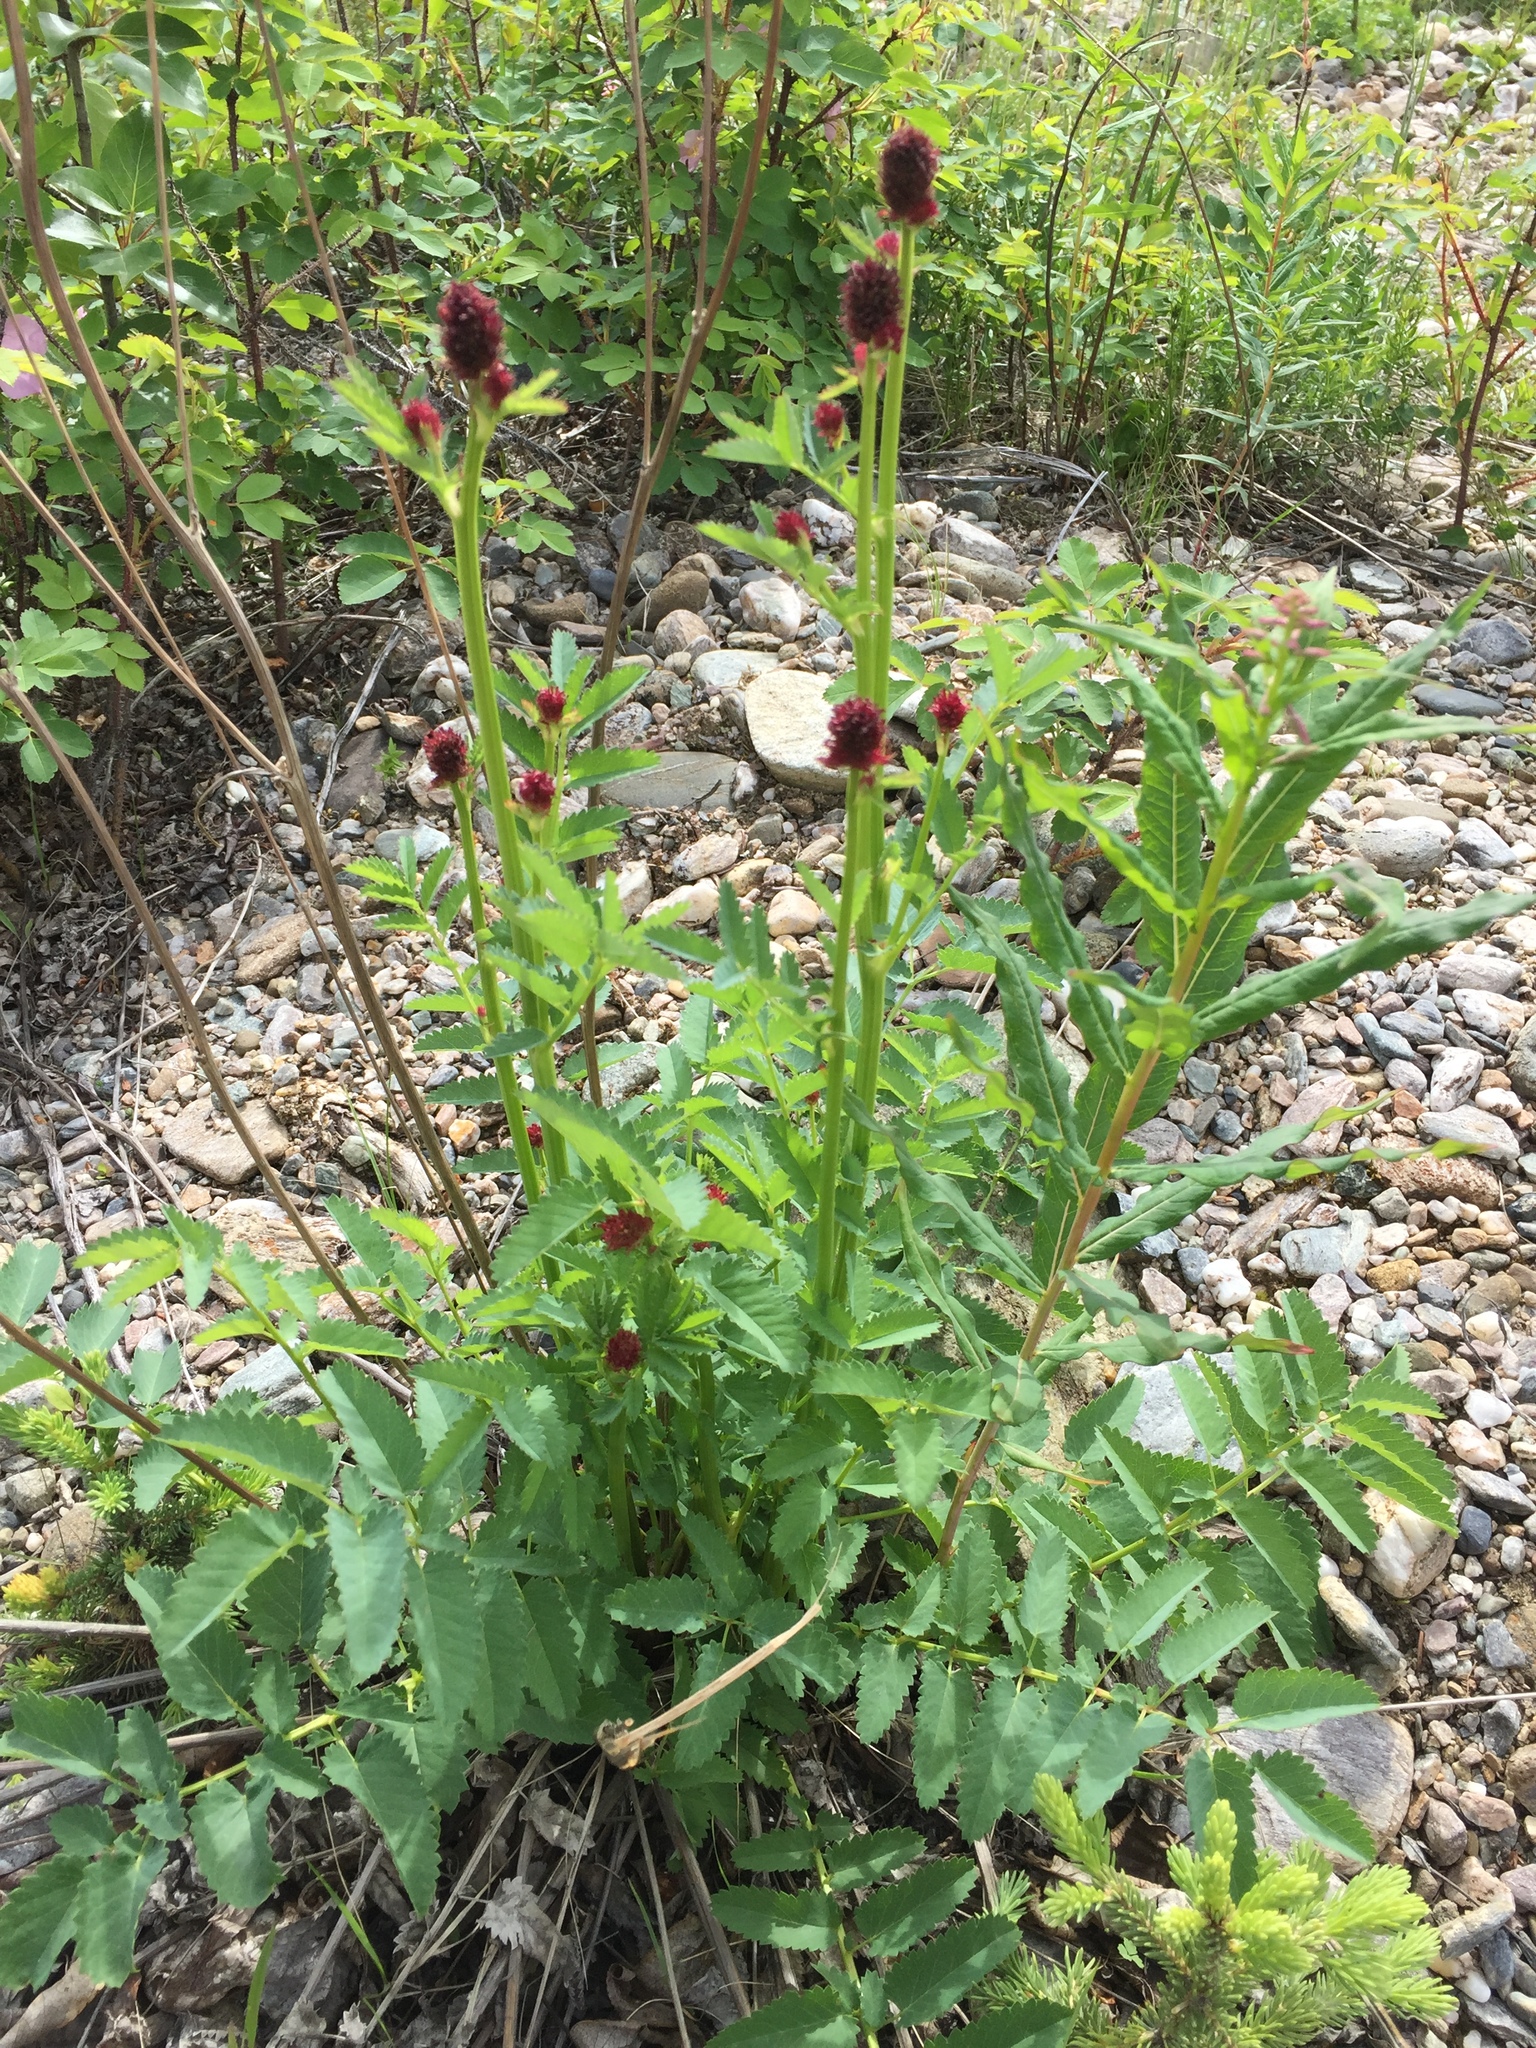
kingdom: Plantae
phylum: Tracheophyta
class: Magnoliopsida
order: Rosales
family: Rosaceae
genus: Sanguisorba
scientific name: Sanguisorba officinalis
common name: Great burnet
